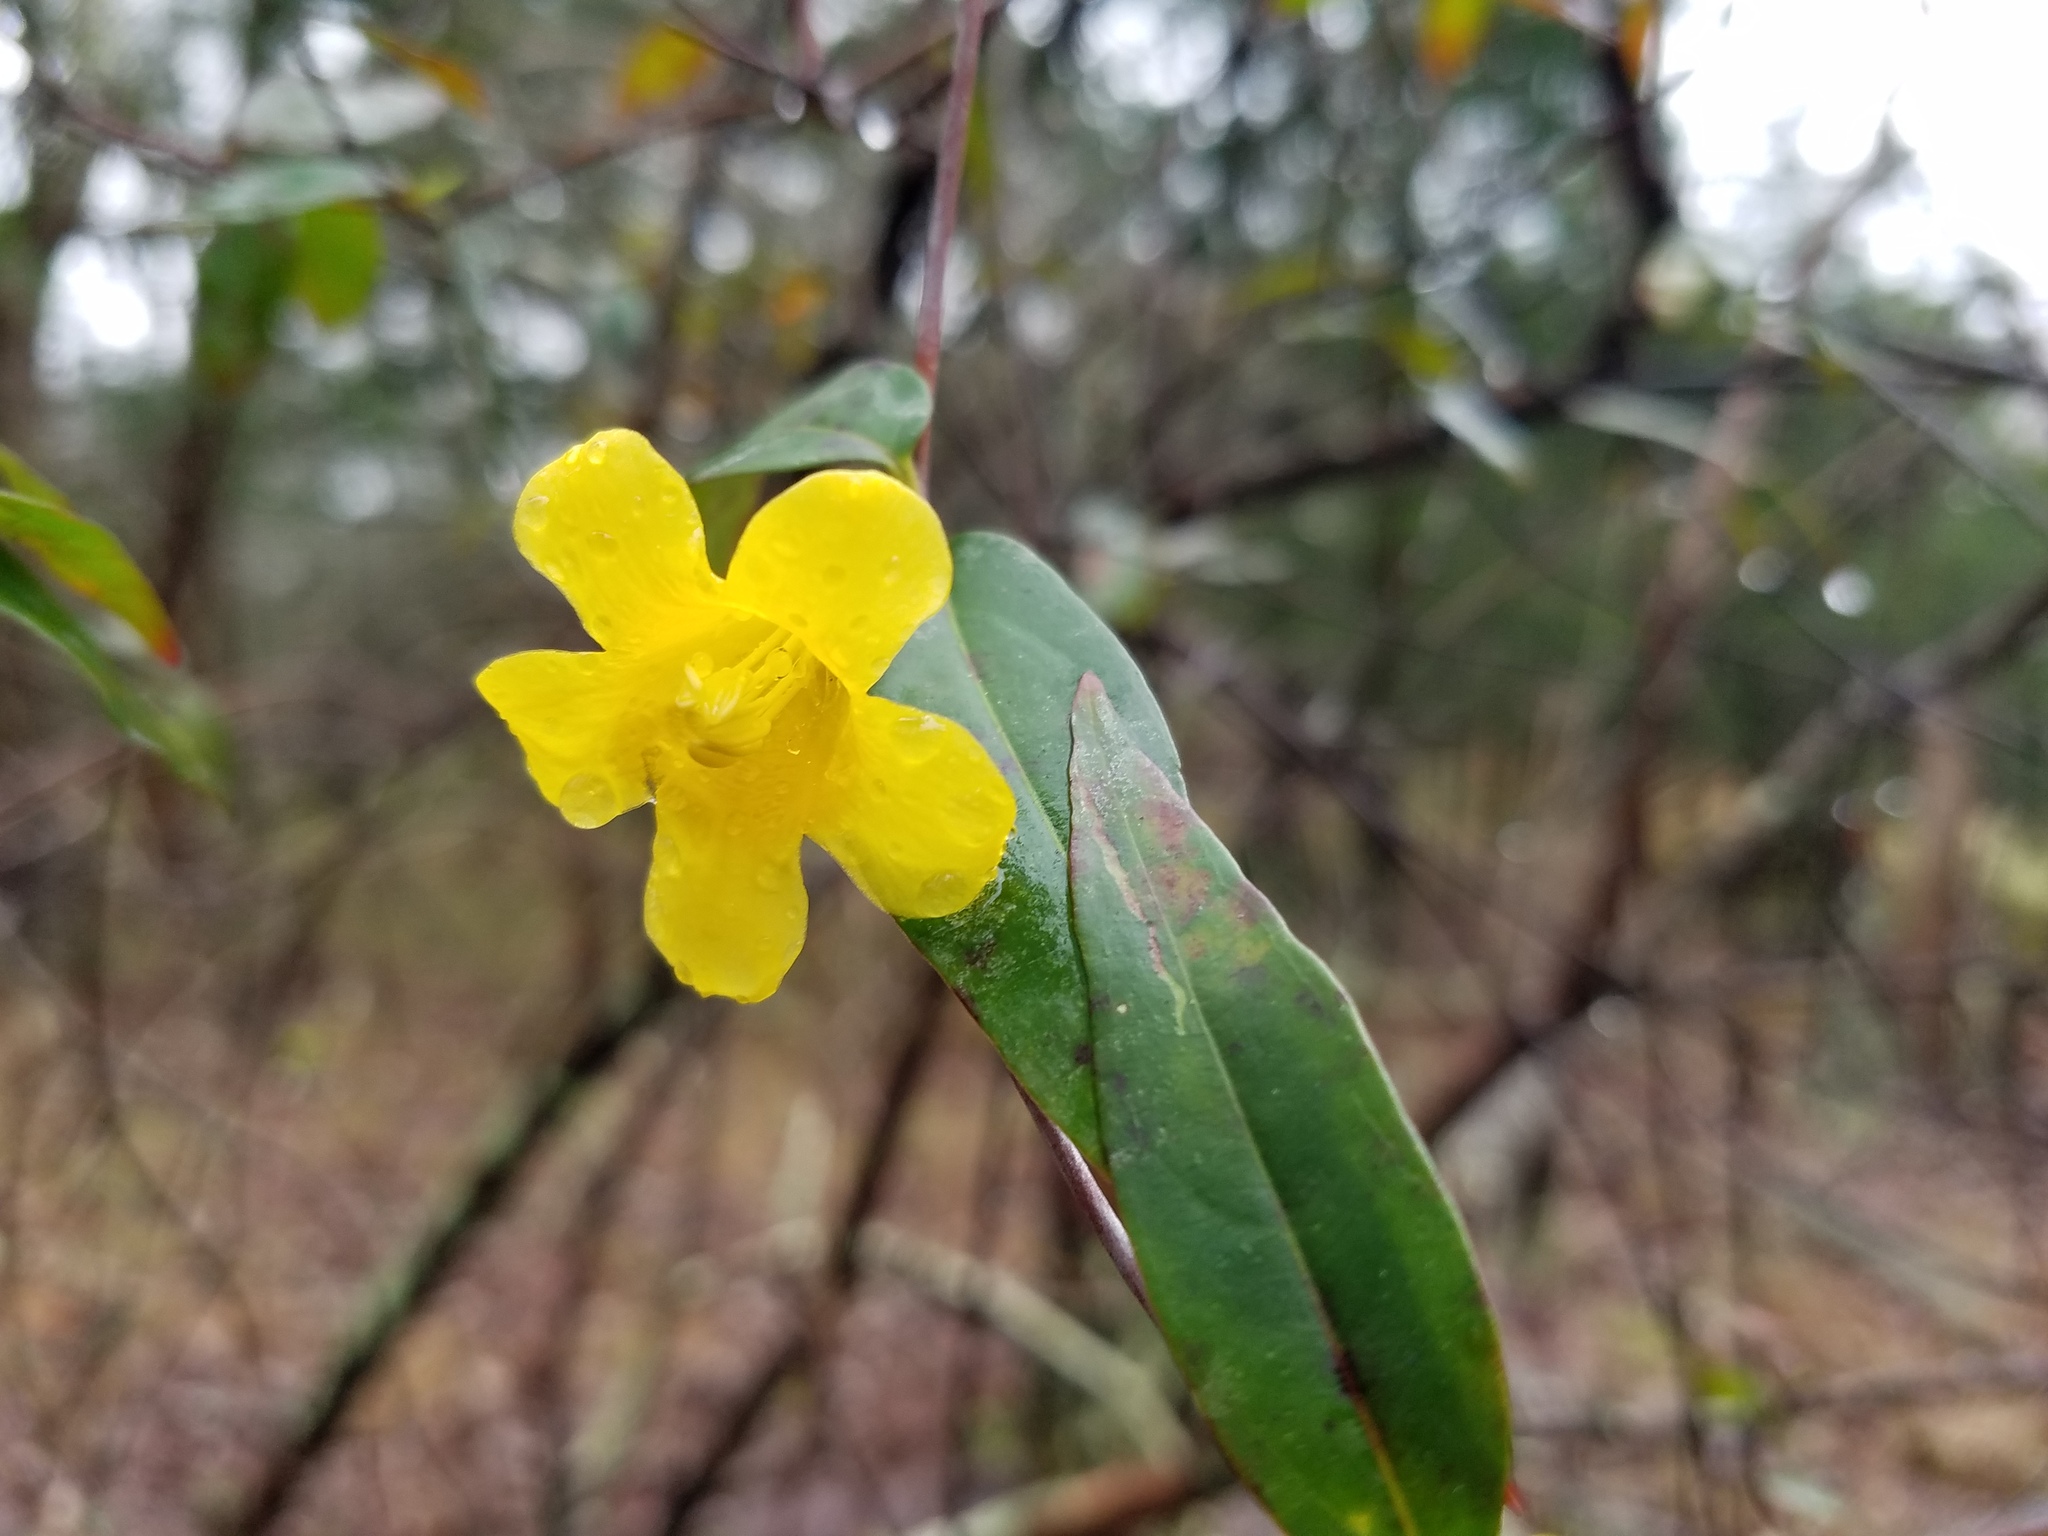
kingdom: Plantae
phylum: Tracheophyta
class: Magnoliopsida
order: Gentianales
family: Gelsemiaceae
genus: Gelsemium
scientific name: Gelsemium sempervirens
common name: Carolina-jasmine
